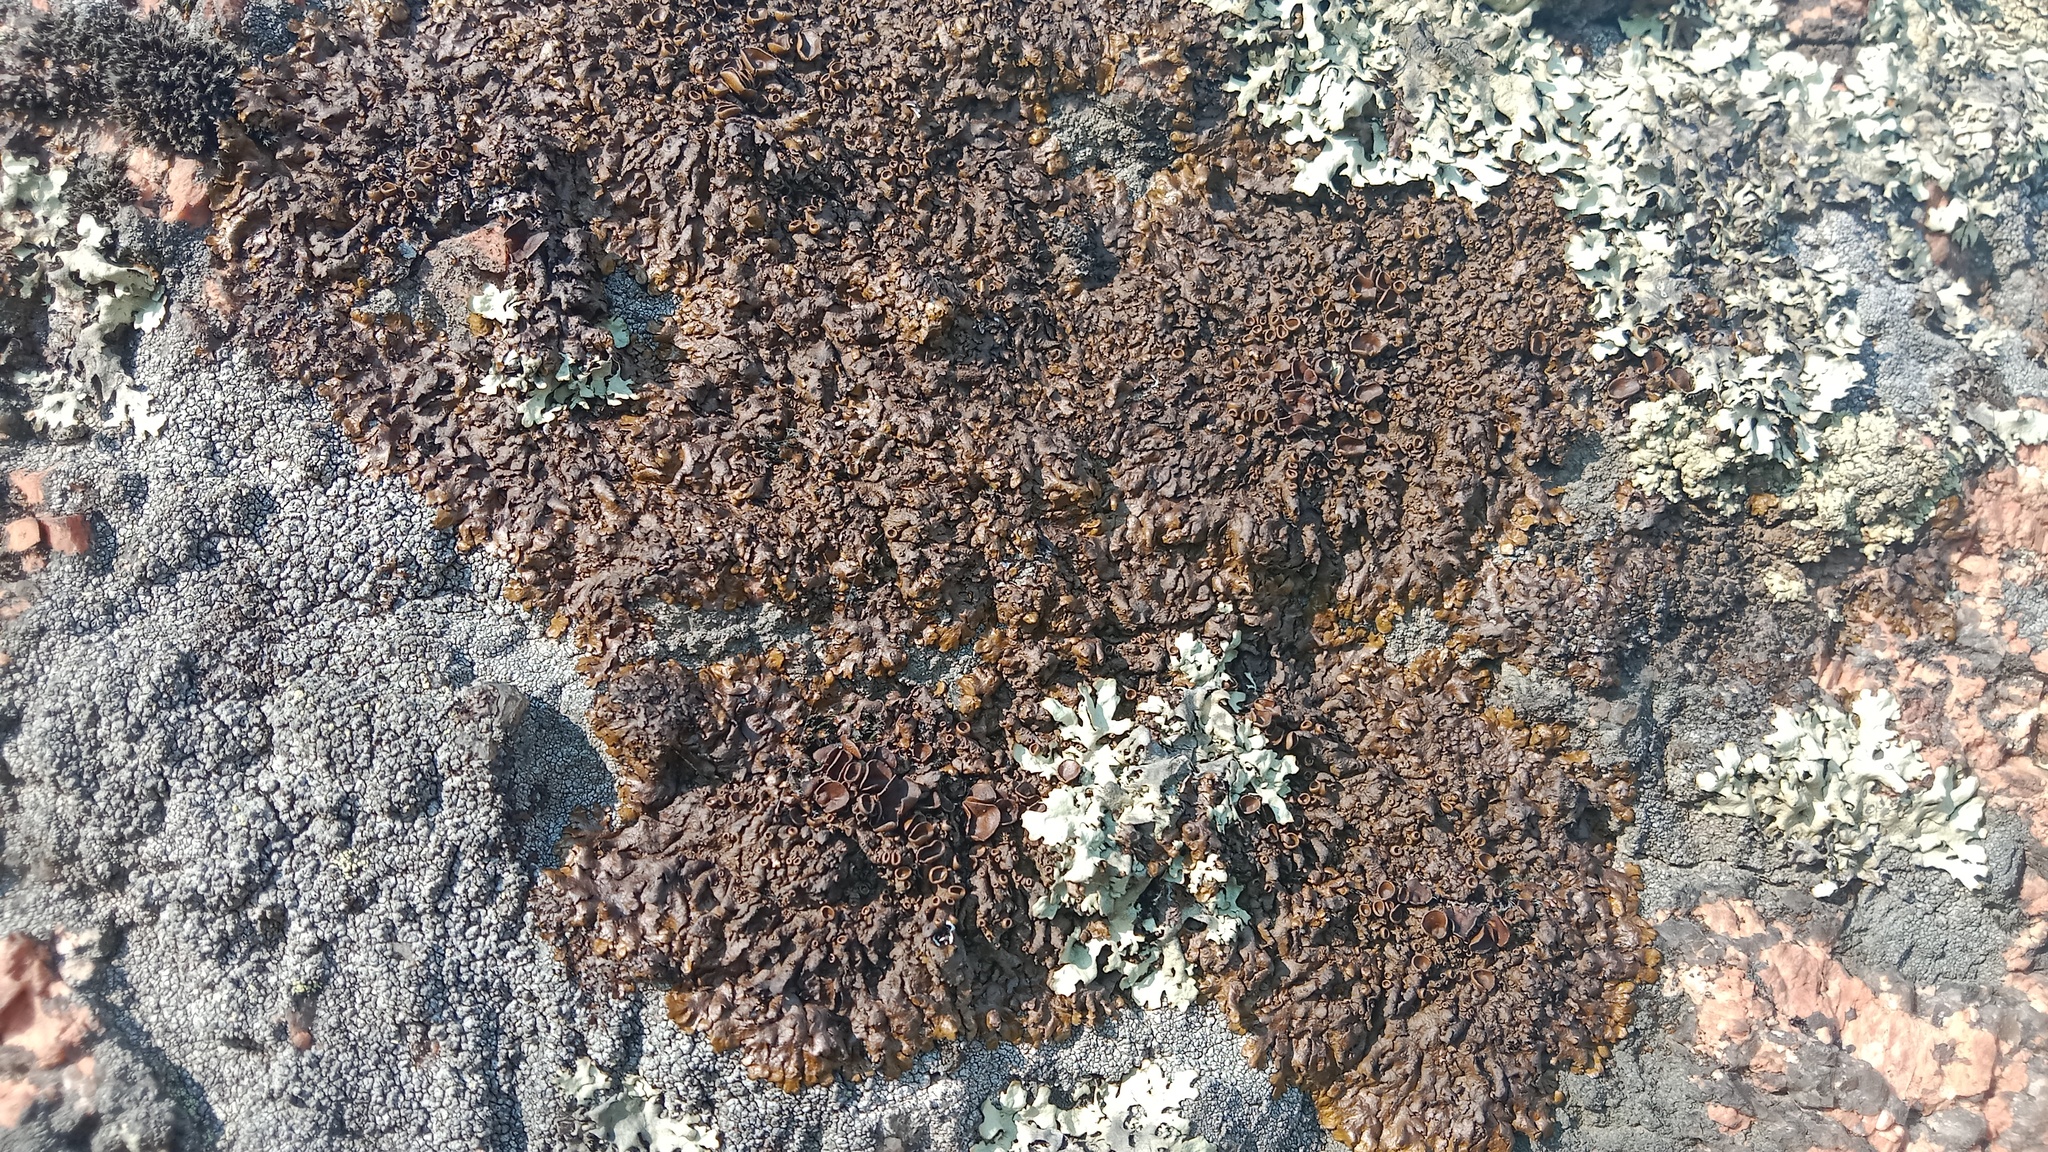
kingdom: Fungi
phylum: Ascomycota
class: Lecanoromycetes
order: Lecanorales
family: Parmeliaceae
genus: Xanthoparmelia
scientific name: Xanthoparmelia pulla
